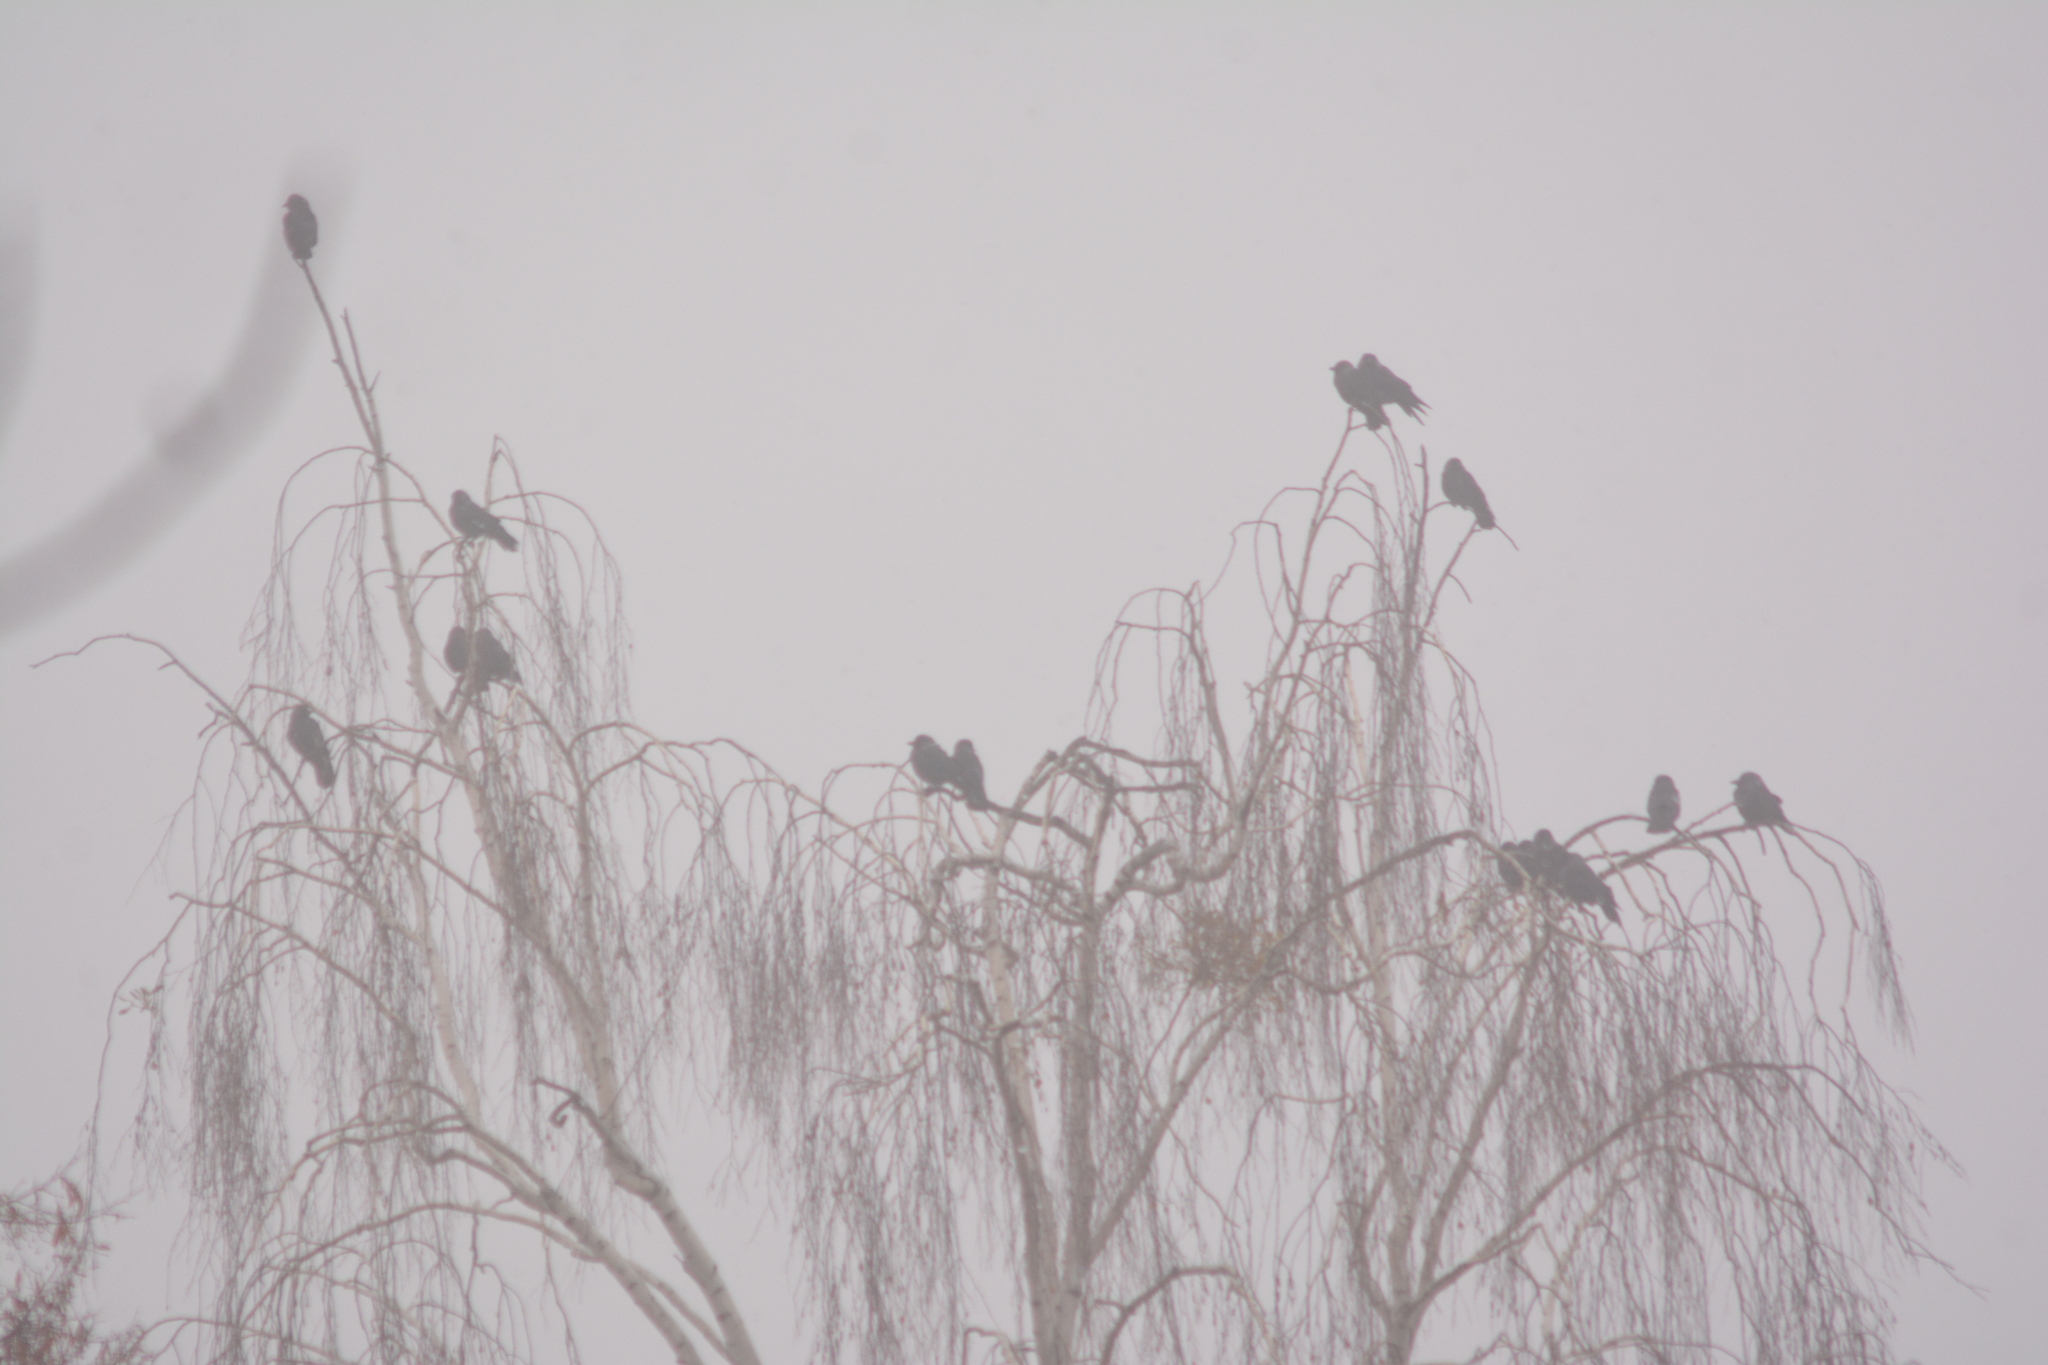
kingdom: Animalia
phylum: Chordata
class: Aves
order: Passeriformes
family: Corvidae
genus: Coloeus
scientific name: Coloeus monedula
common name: Western jackdaw
